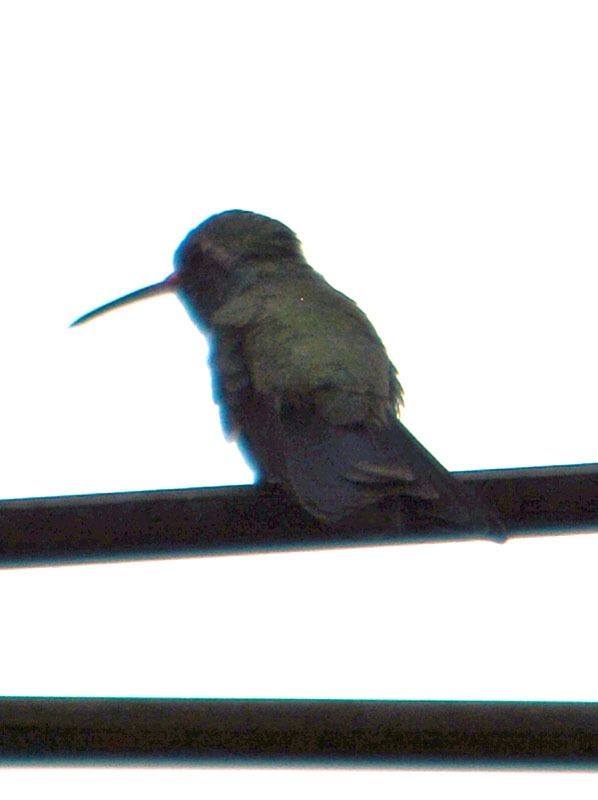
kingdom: Animalia
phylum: Chordata
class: Aves
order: Apodiformes
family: Trochilidae
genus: Cynanthus
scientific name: Cynanthus latirostris
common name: Broad-billed hummingbird
